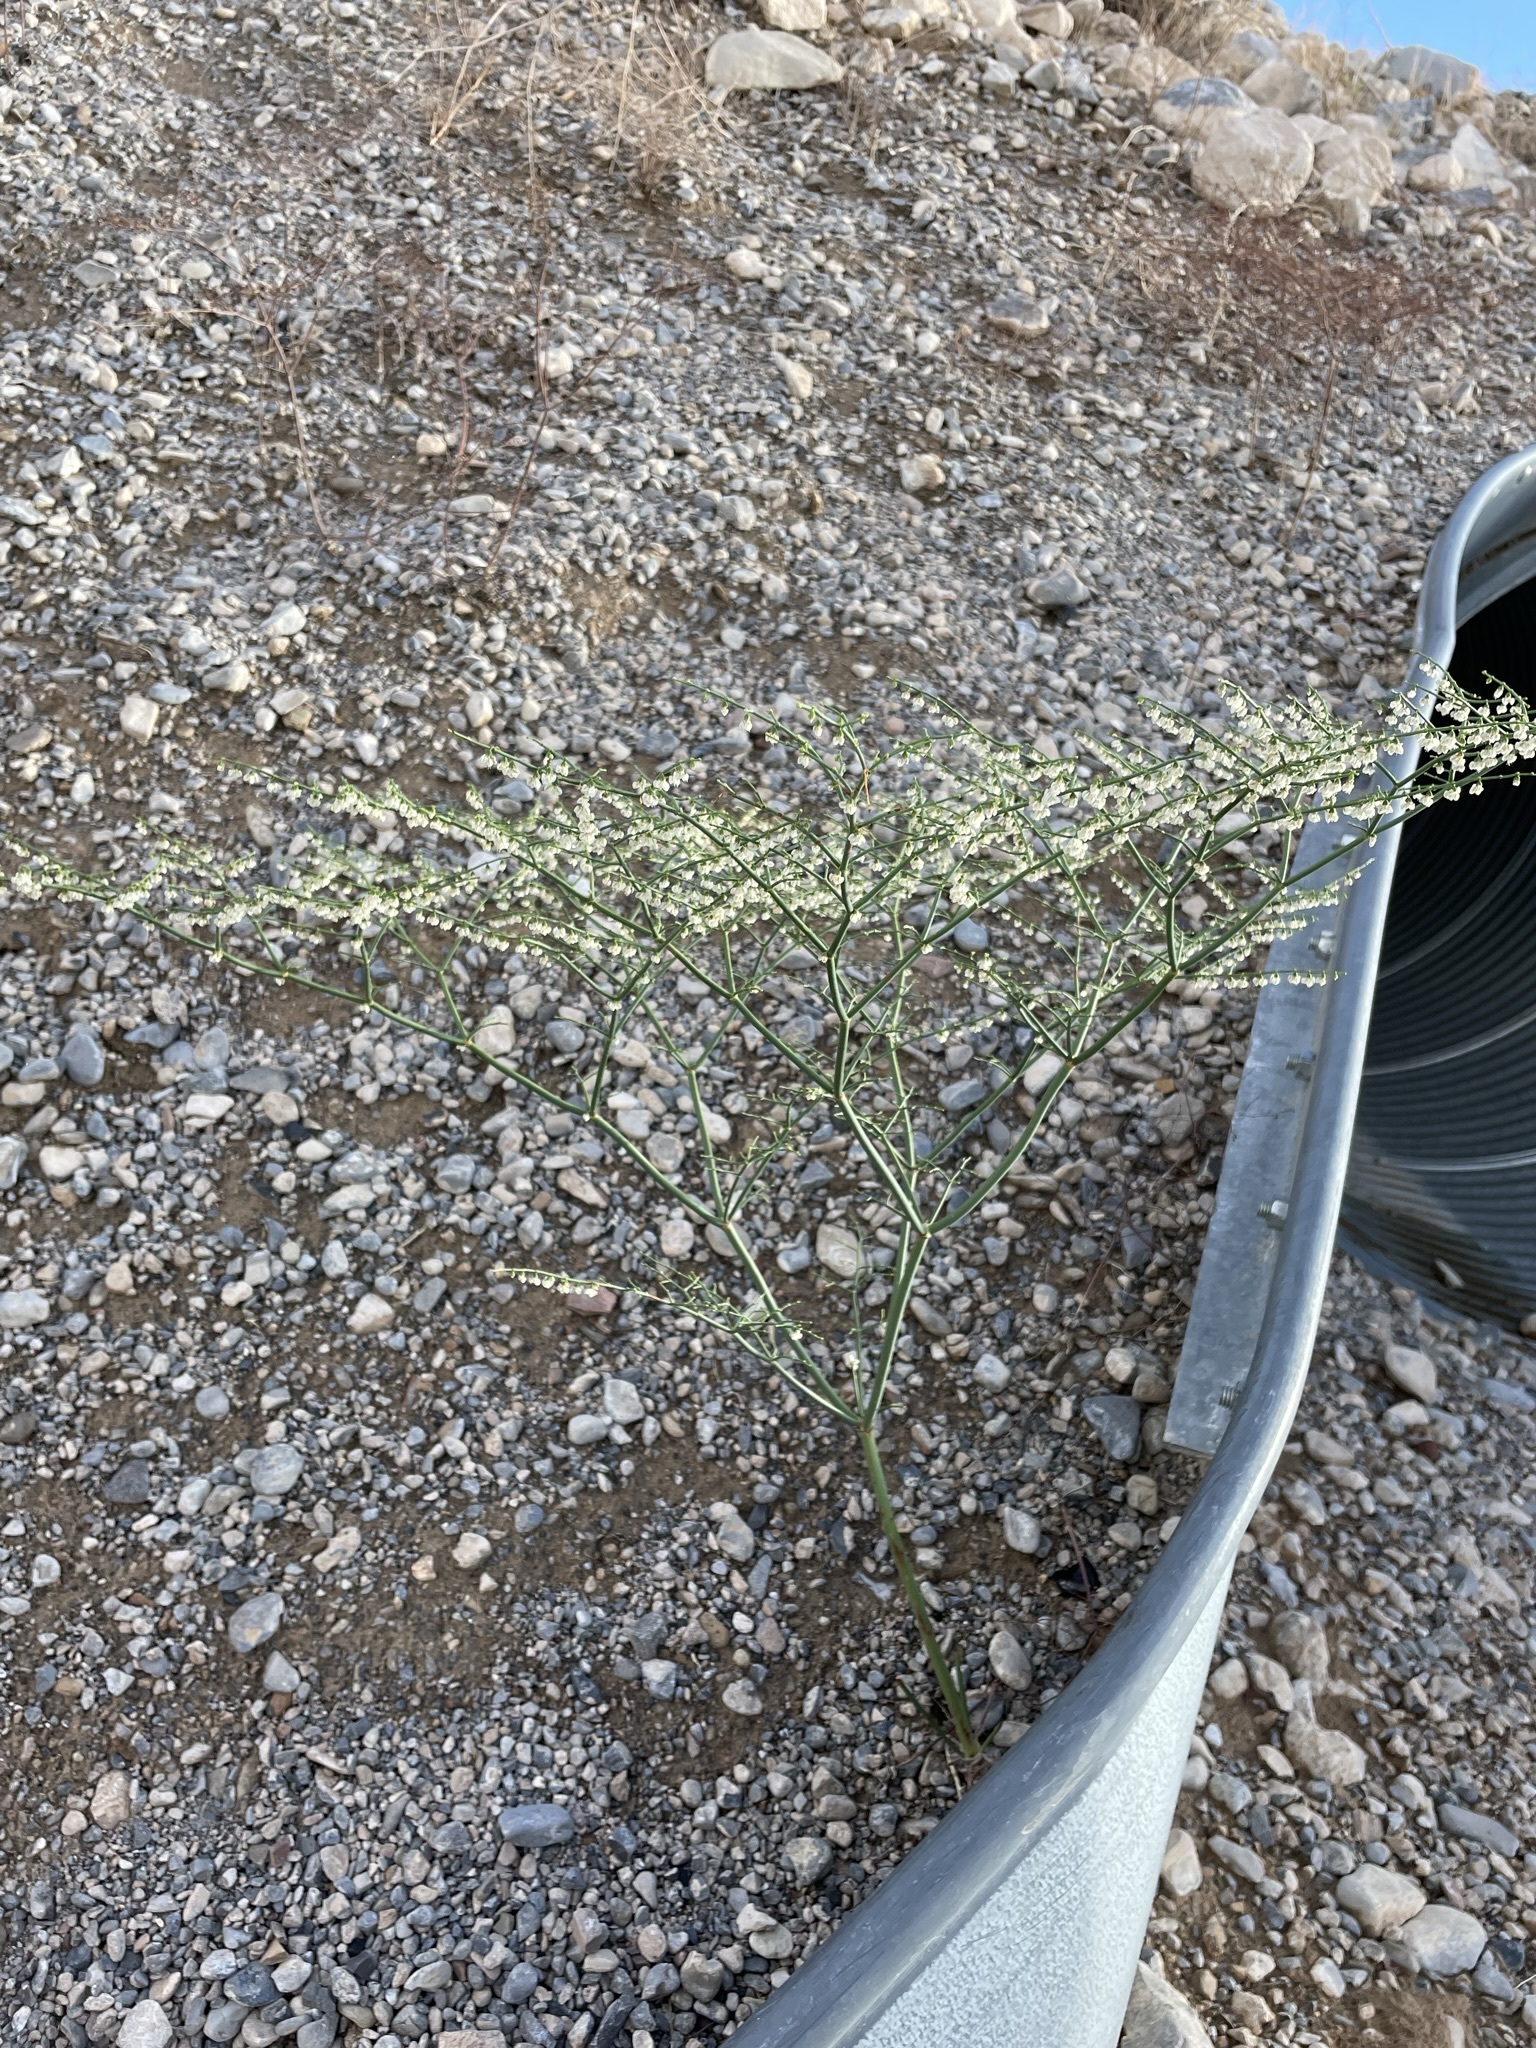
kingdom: Plantae
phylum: Tracheophyta
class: Magnoliopsida
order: Caryophyllales
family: Polygonaceae
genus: Eriogonum
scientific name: Eriogonum deflexum
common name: Skeleton-weed
